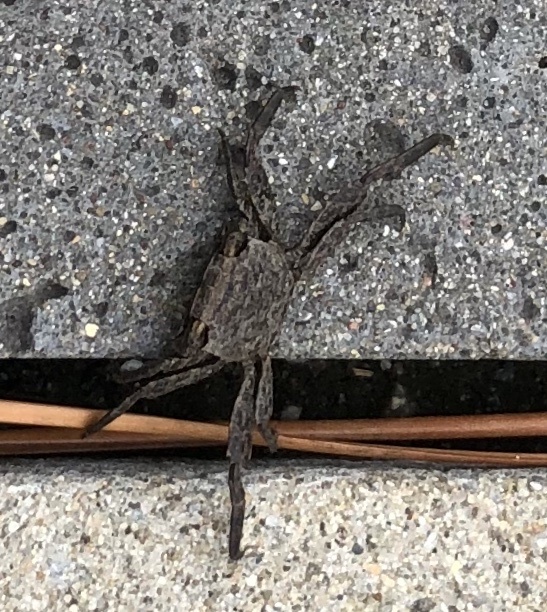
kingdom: Animalia
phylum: Arthropoda
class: Malacostraca
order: Decapoda
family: Sesarmidae
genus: Armases
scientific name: Armases cinereum
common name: Squareback marsh crab
